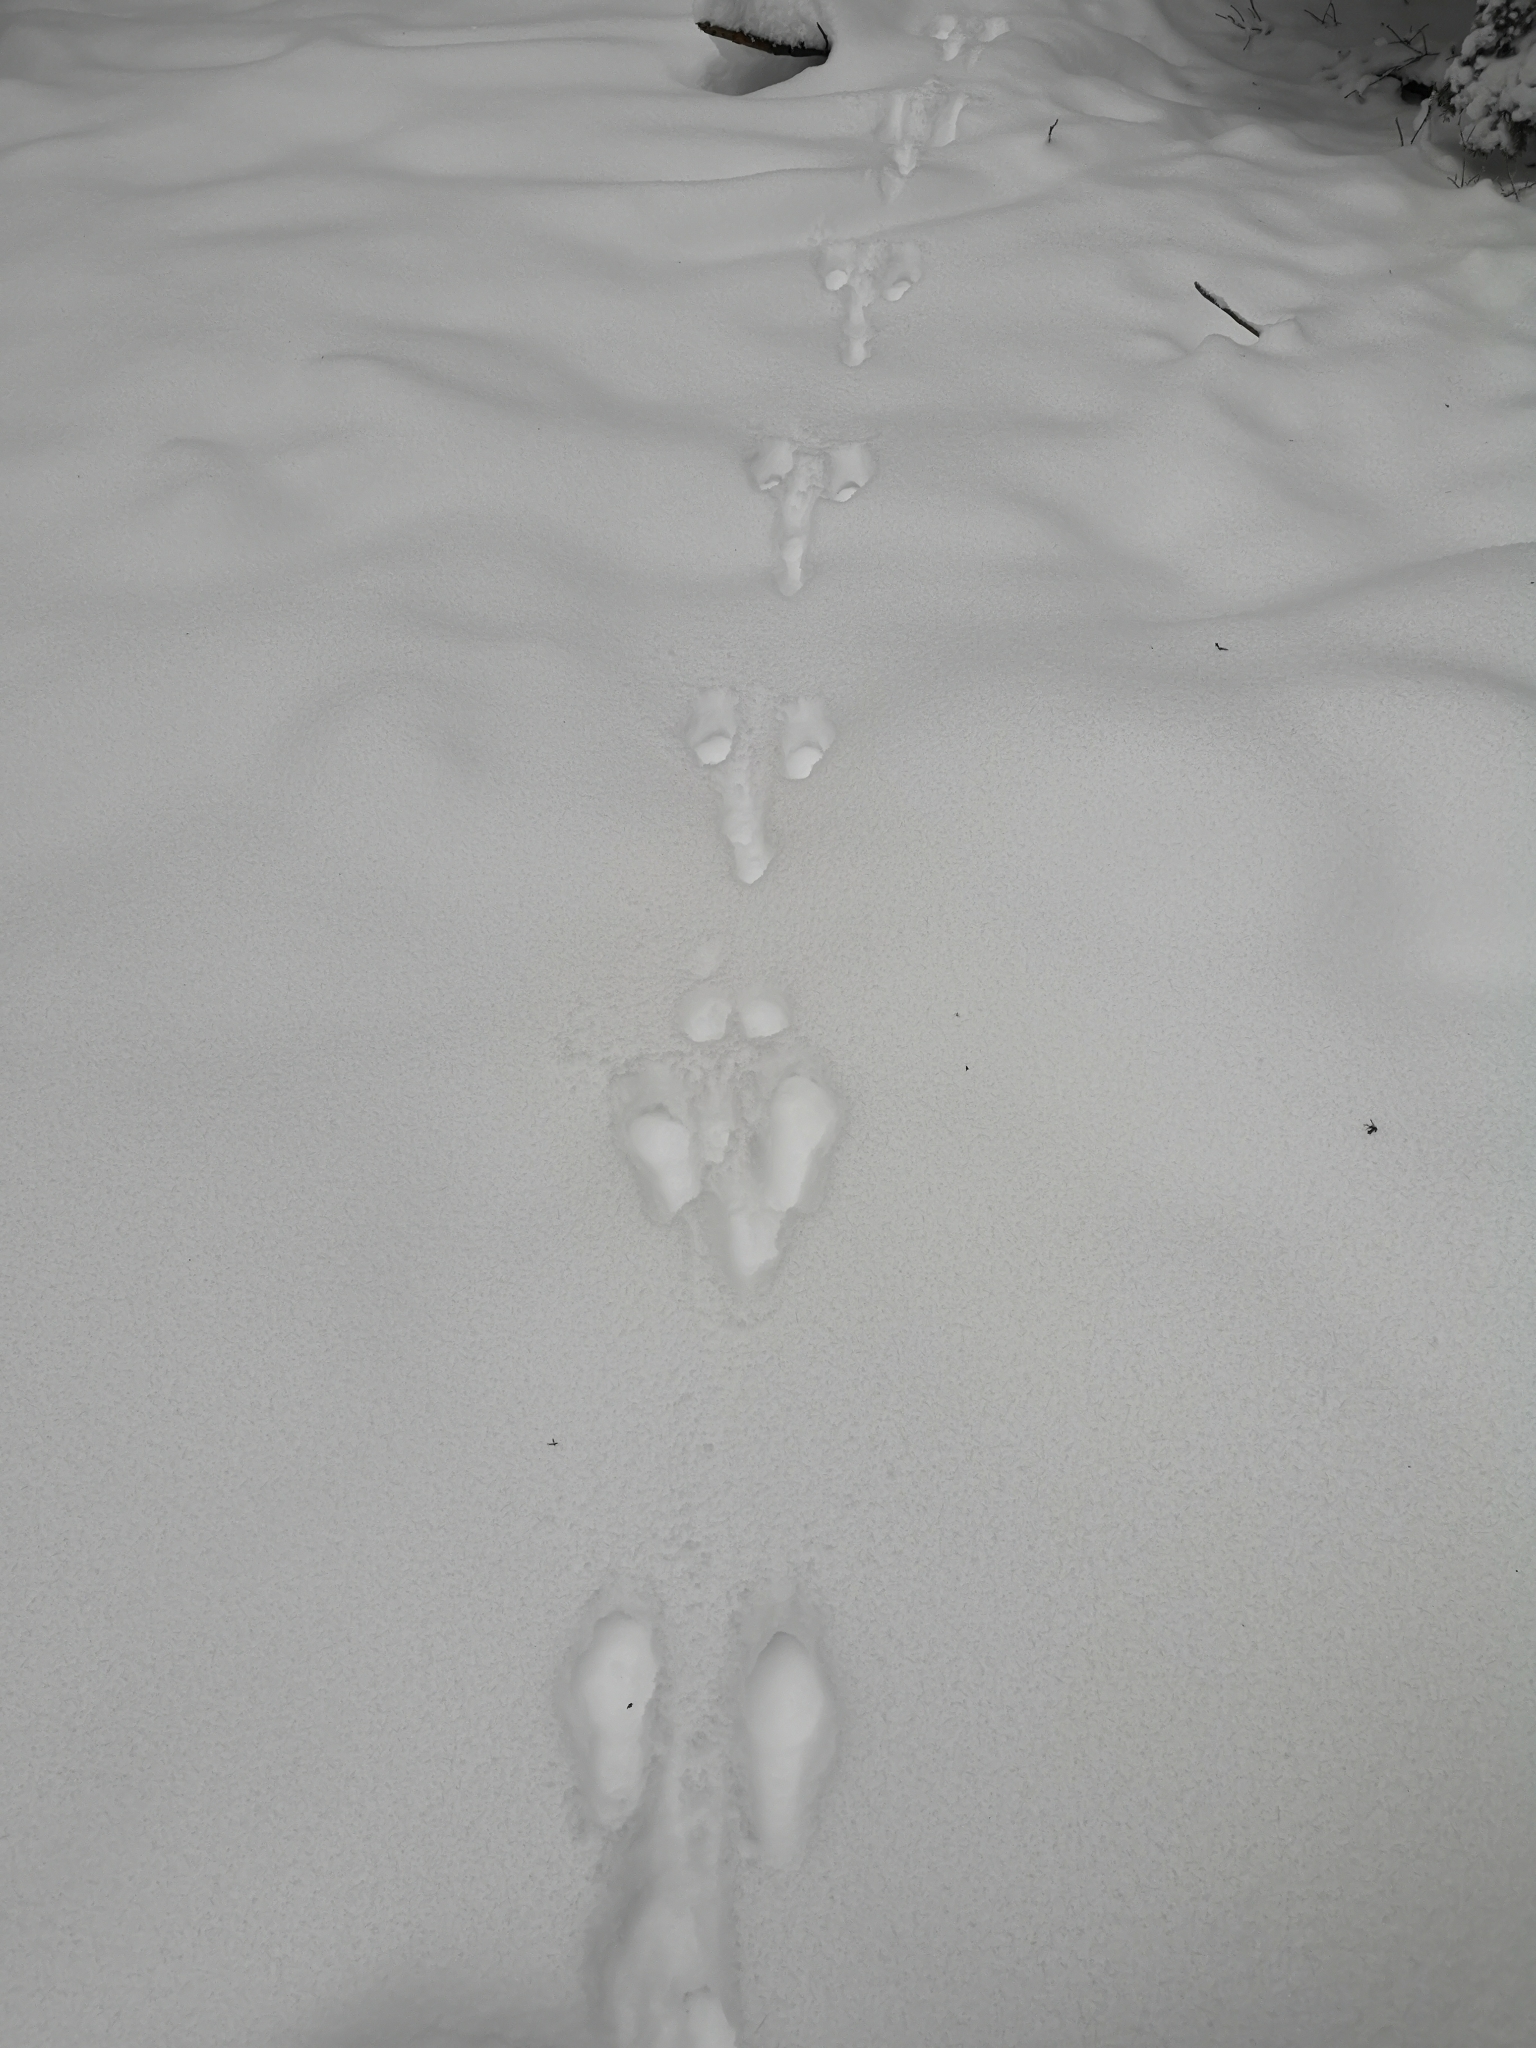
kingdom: Animalia
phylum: Chordata
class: Mammalia
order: Lagomorpha
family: Leporidae
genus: Lepus
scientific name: Lepus europaeus
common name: European hare
